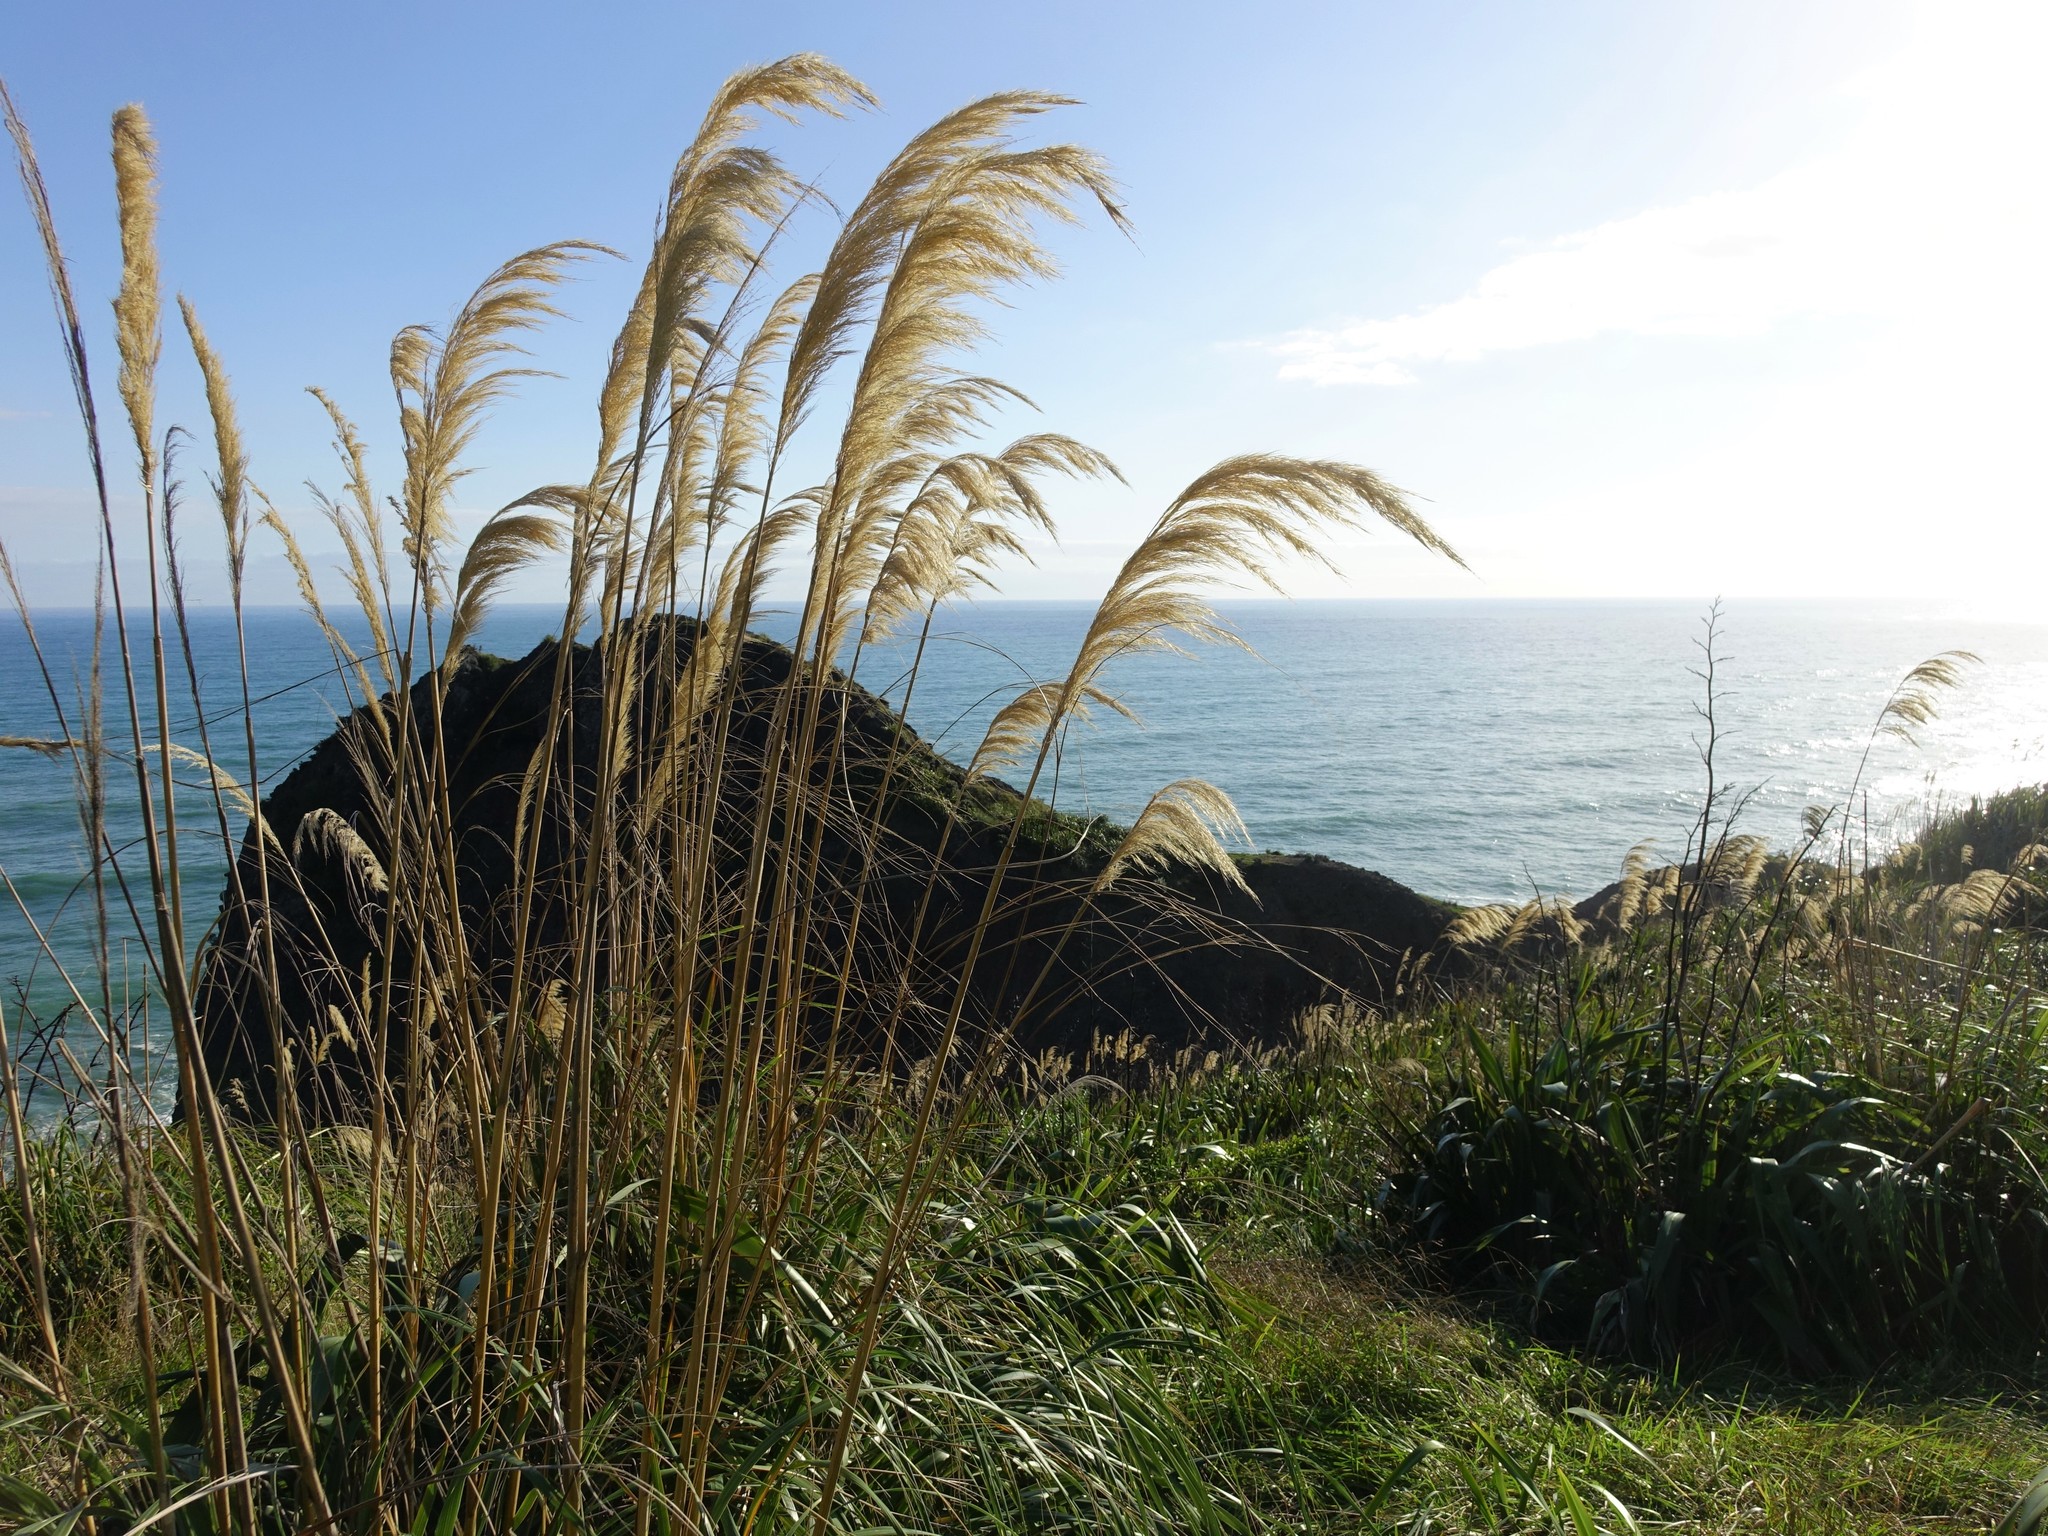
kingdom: Plantae
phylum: Tracheophyta
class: Liliopsida
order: Poales
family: Poaceae
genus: Austroderia
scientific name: Austroderia splendens
